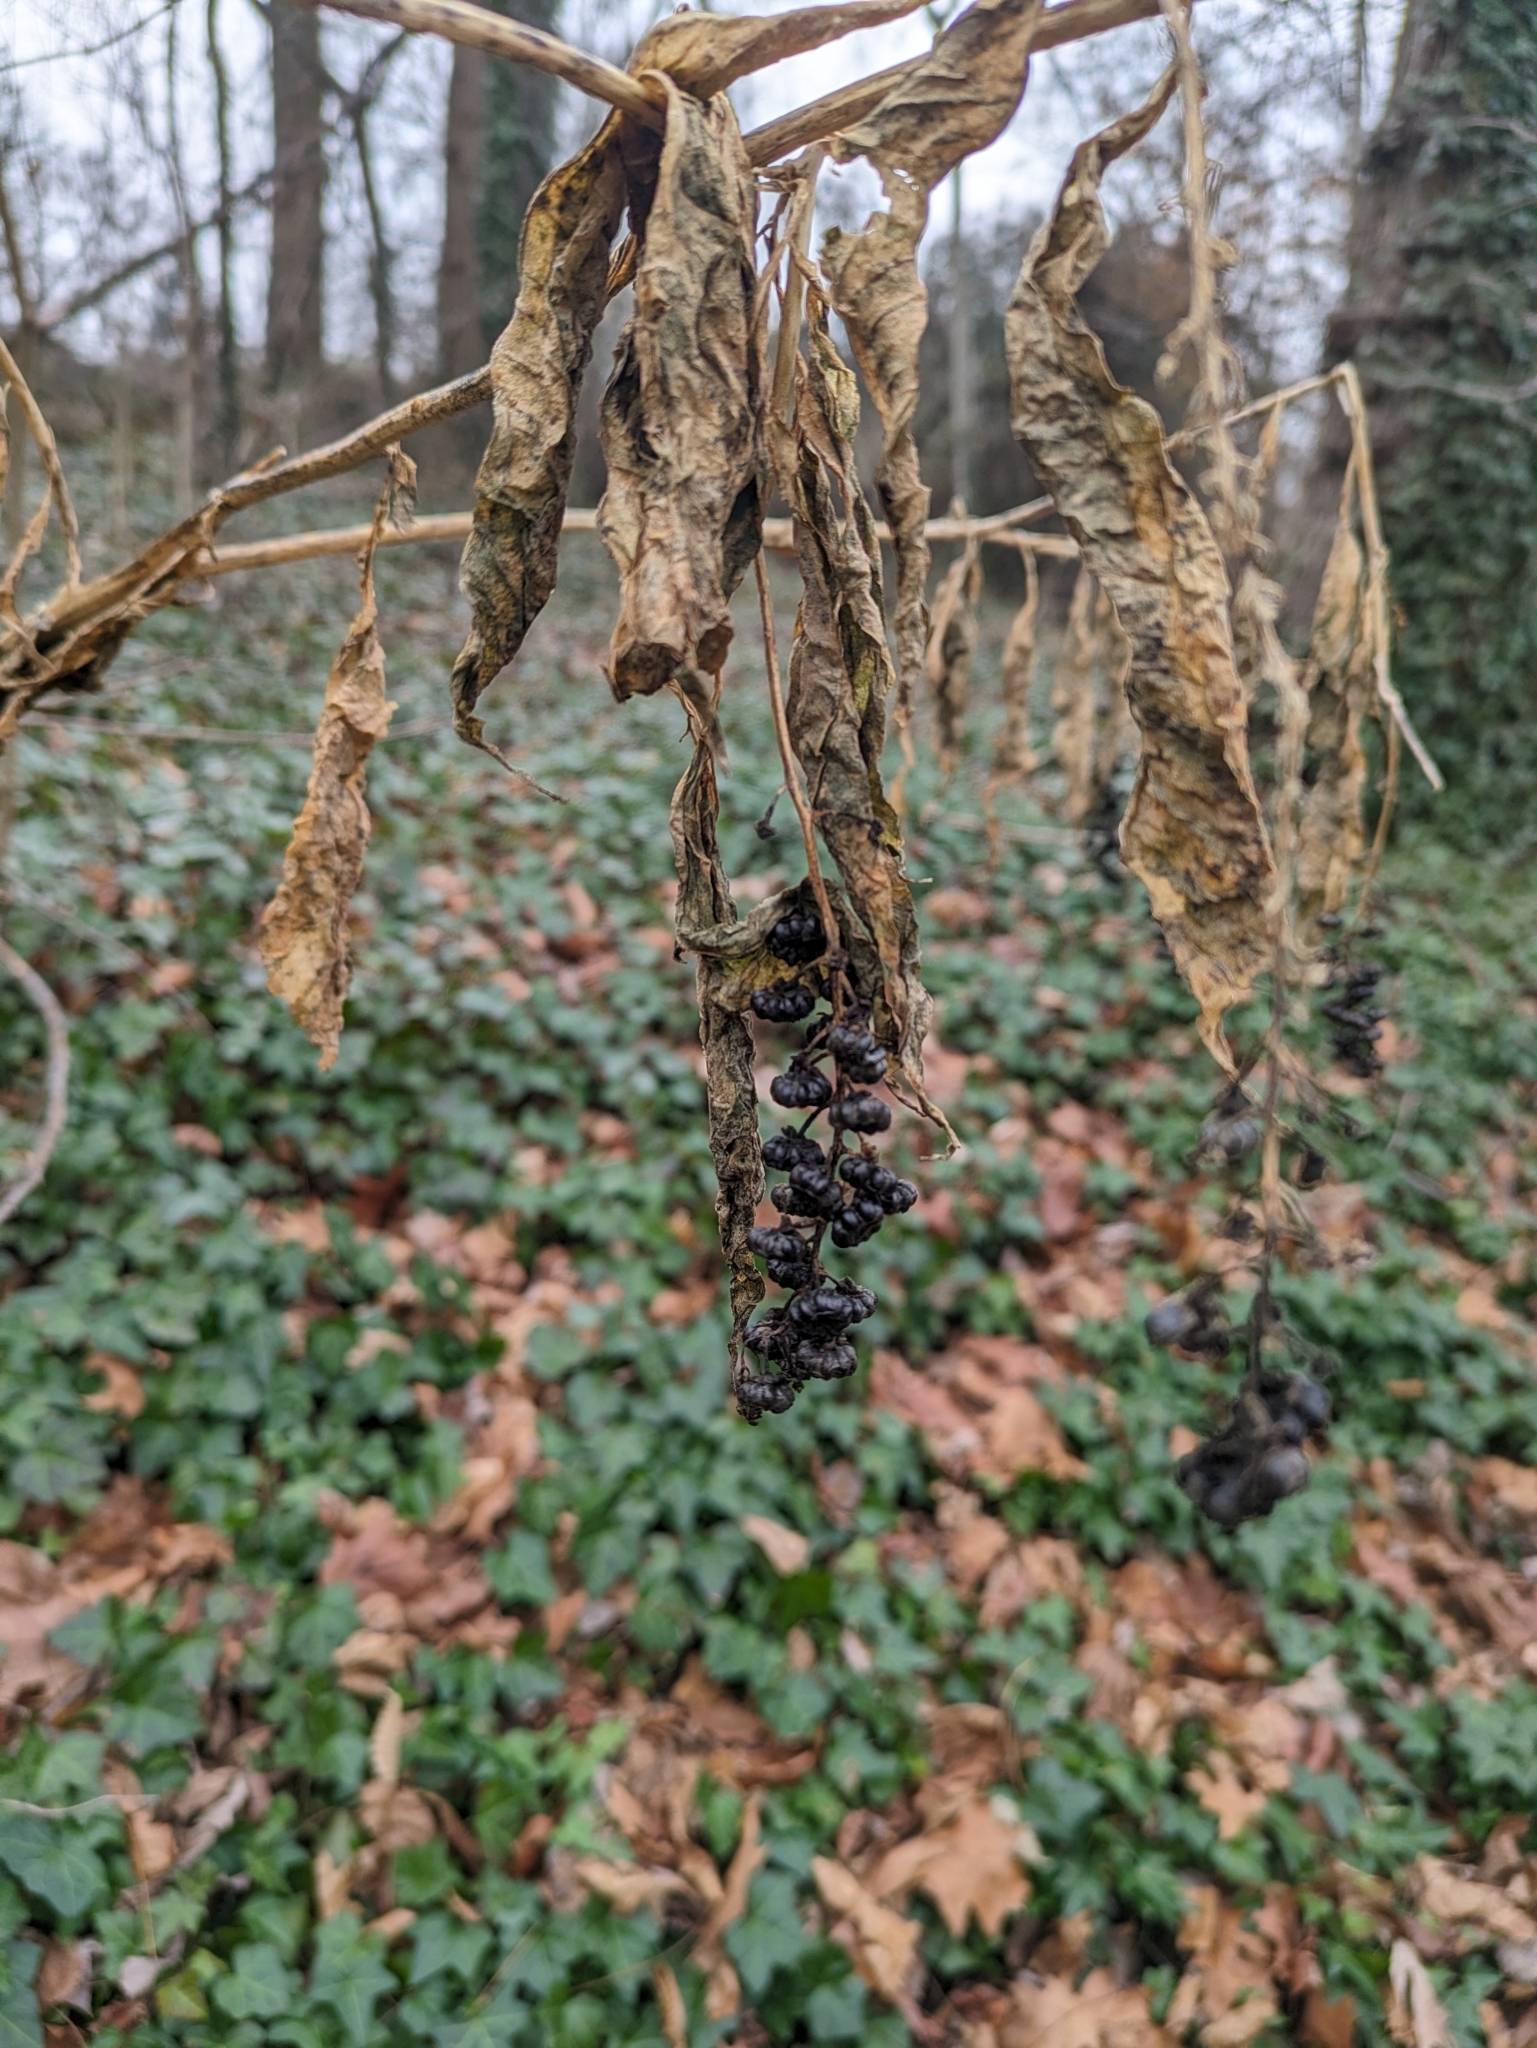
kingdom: Plantae
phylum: Tracheophyta
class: Magnoliopsida
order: Caryophyllales
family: Phytolaccaceae
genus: Phytolacca
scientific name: Phytolacca americana
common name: American pokeweed
